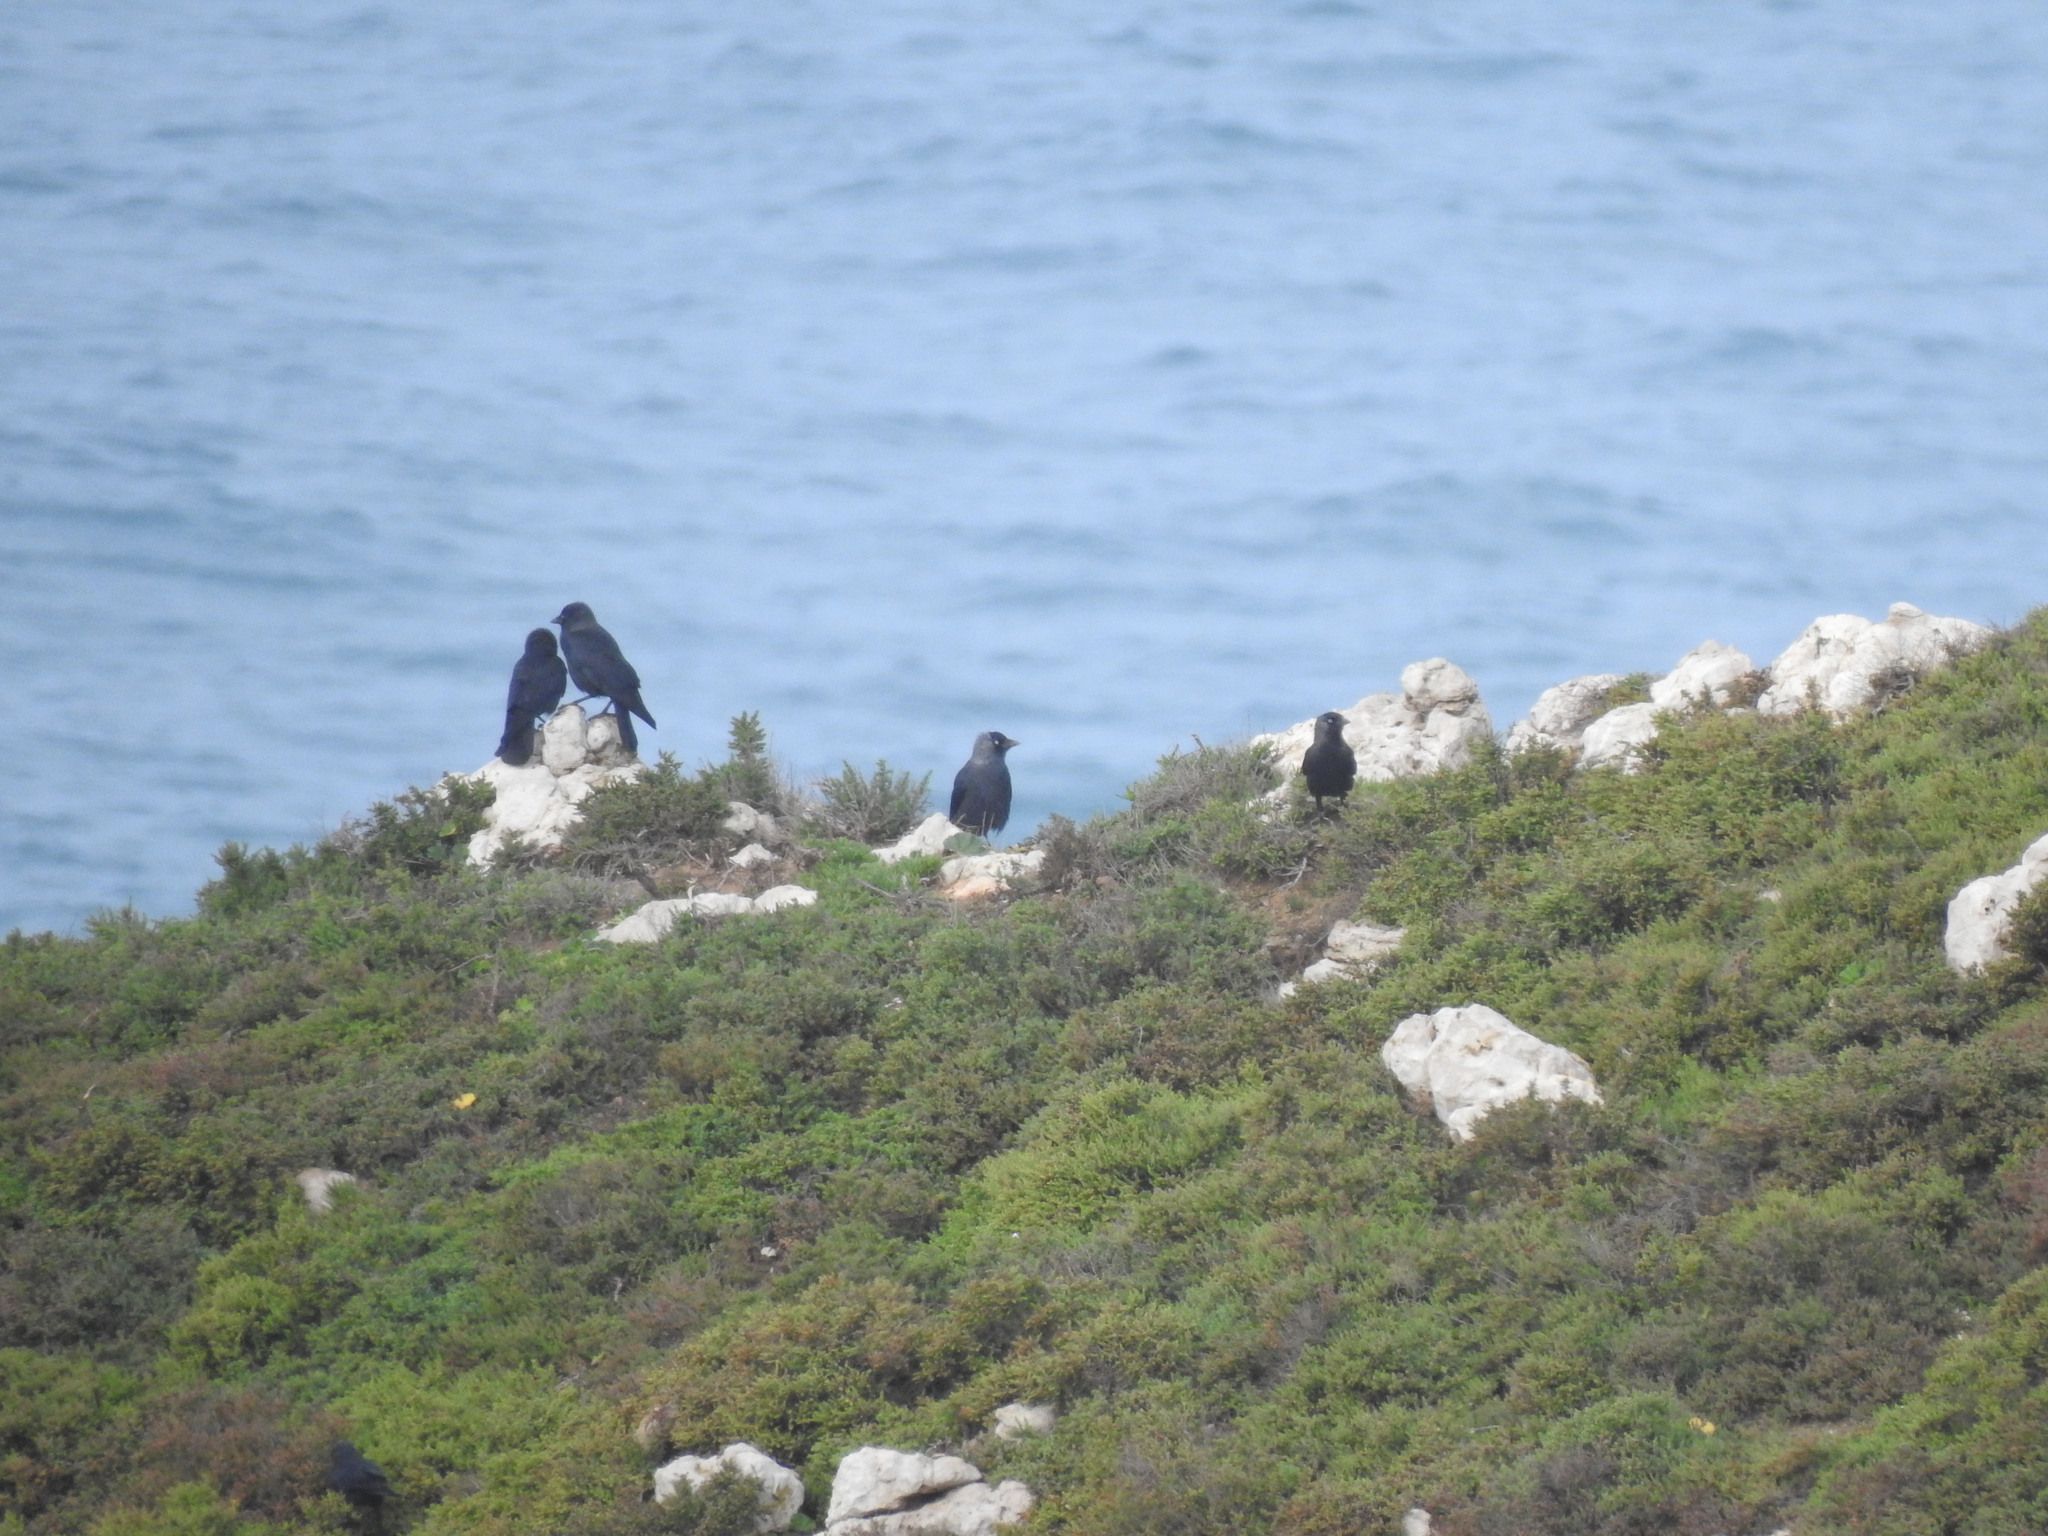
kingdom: Animalia
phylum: Chordata
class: Aves
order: Passeriformes
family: Corvidae
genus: Coloeus
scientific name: Coloeus monedula
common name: Western jackdaw
